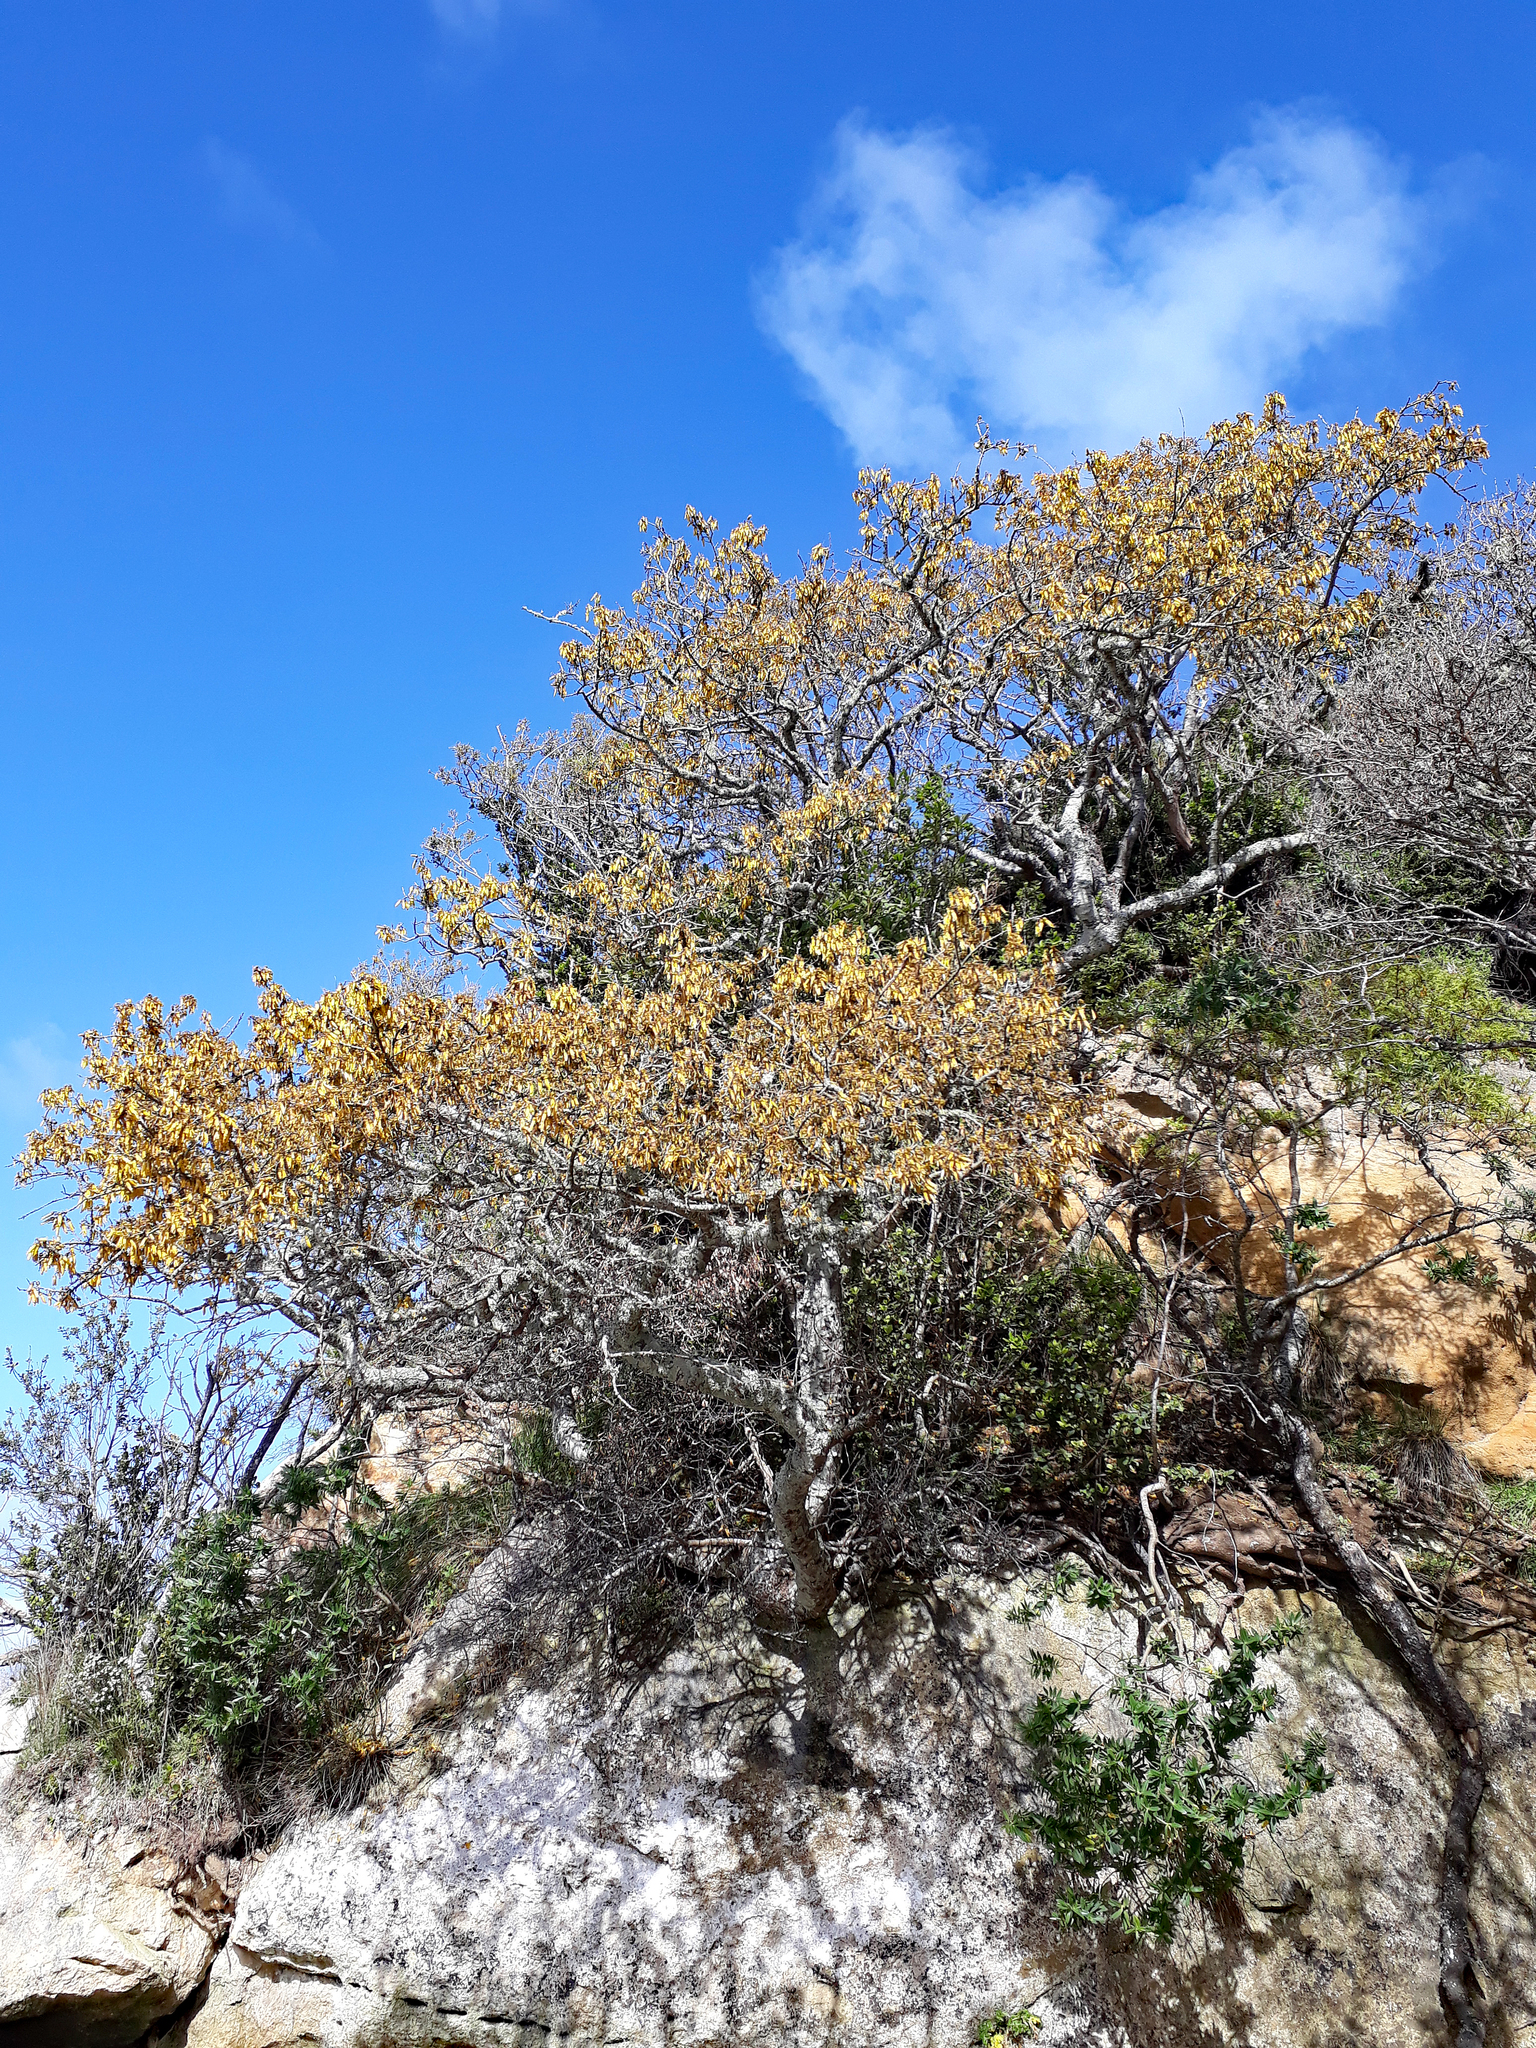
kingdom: Plantae
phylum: Tracheophyta
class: Magnoliopsida
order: Fabales
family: Fabaceae
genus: Sophora
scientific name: Sophora chathamica
